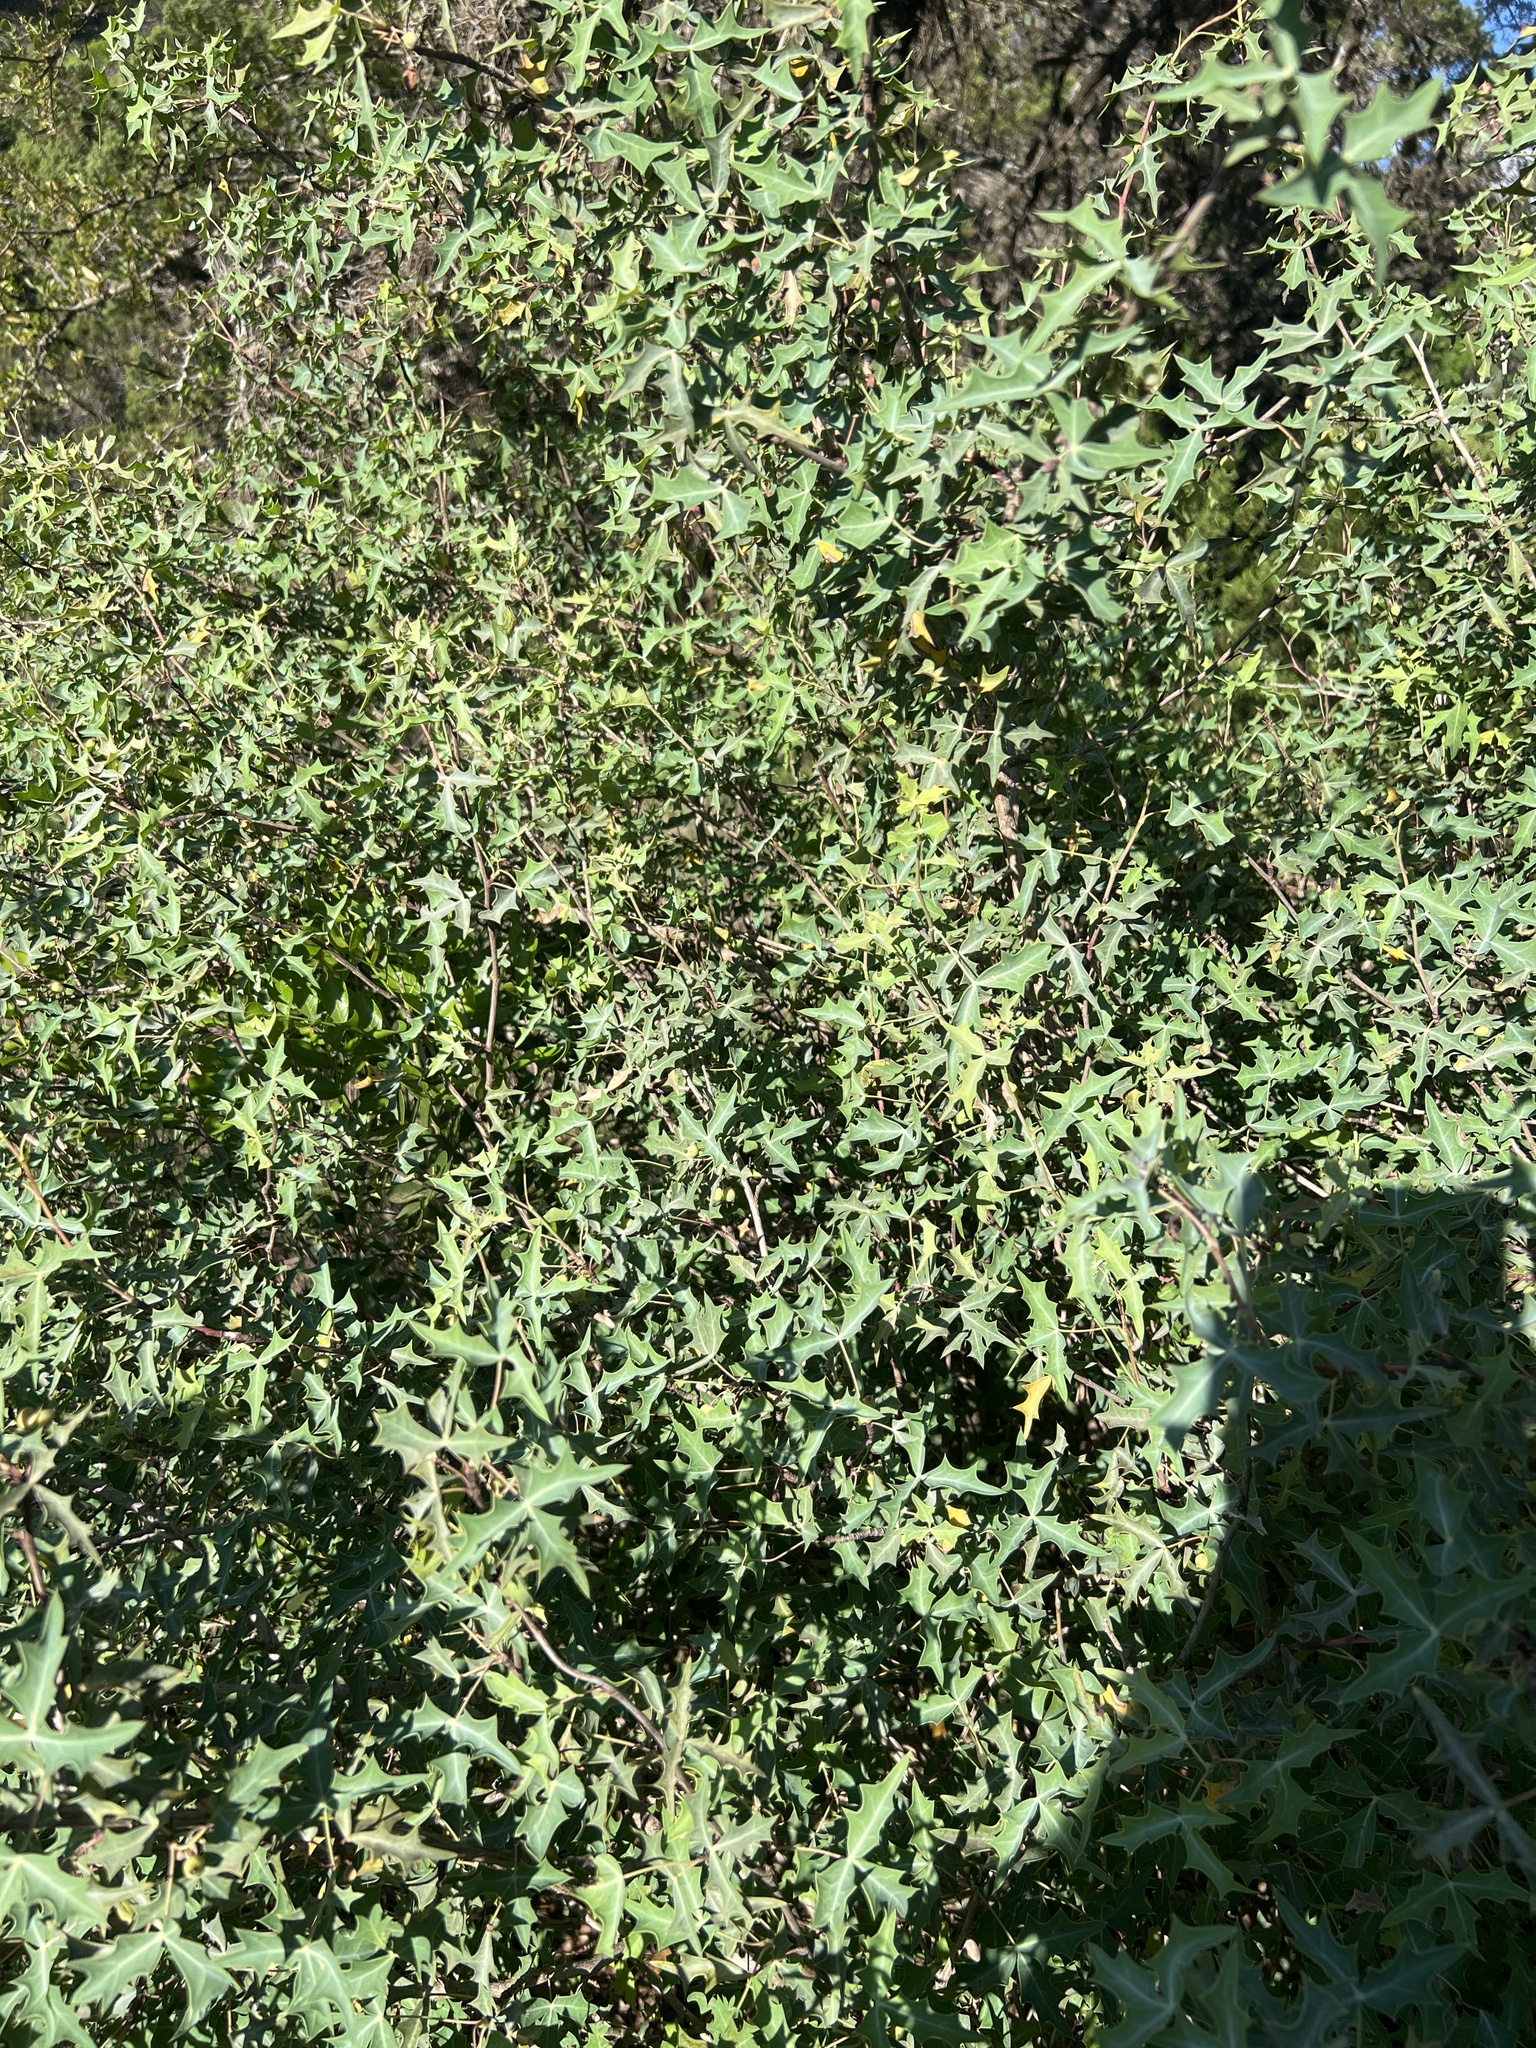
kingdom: Plantae
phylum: Tracheophyta
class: Magnoliopsida
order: Ranunculales
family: Berberidaceae
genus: Alloberberis
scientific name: Alloberberis trifoliolata
